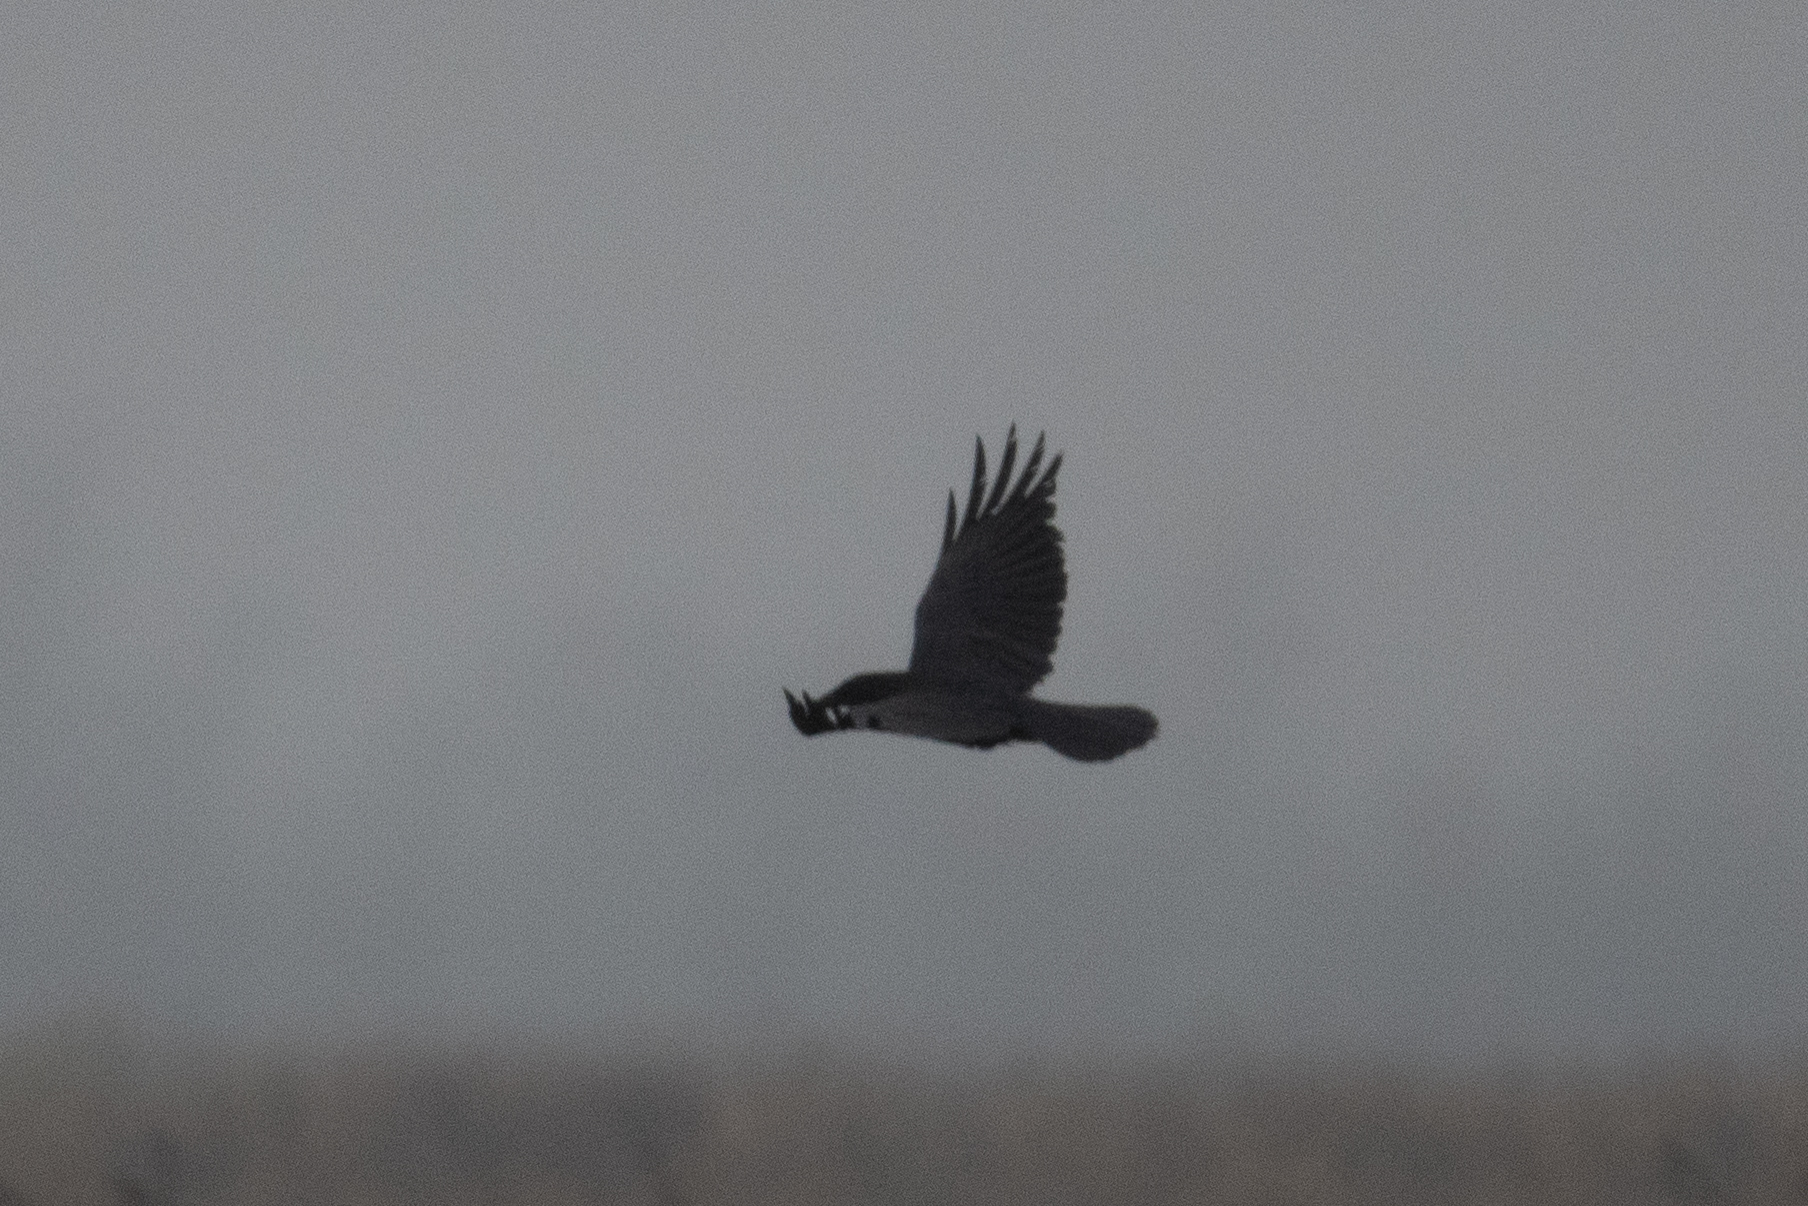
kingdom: Animalia
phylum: Chordata
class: Aves
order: Passeriformes
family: Corvidae
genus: Corvus
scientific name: Corvus corax
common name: Common raven
